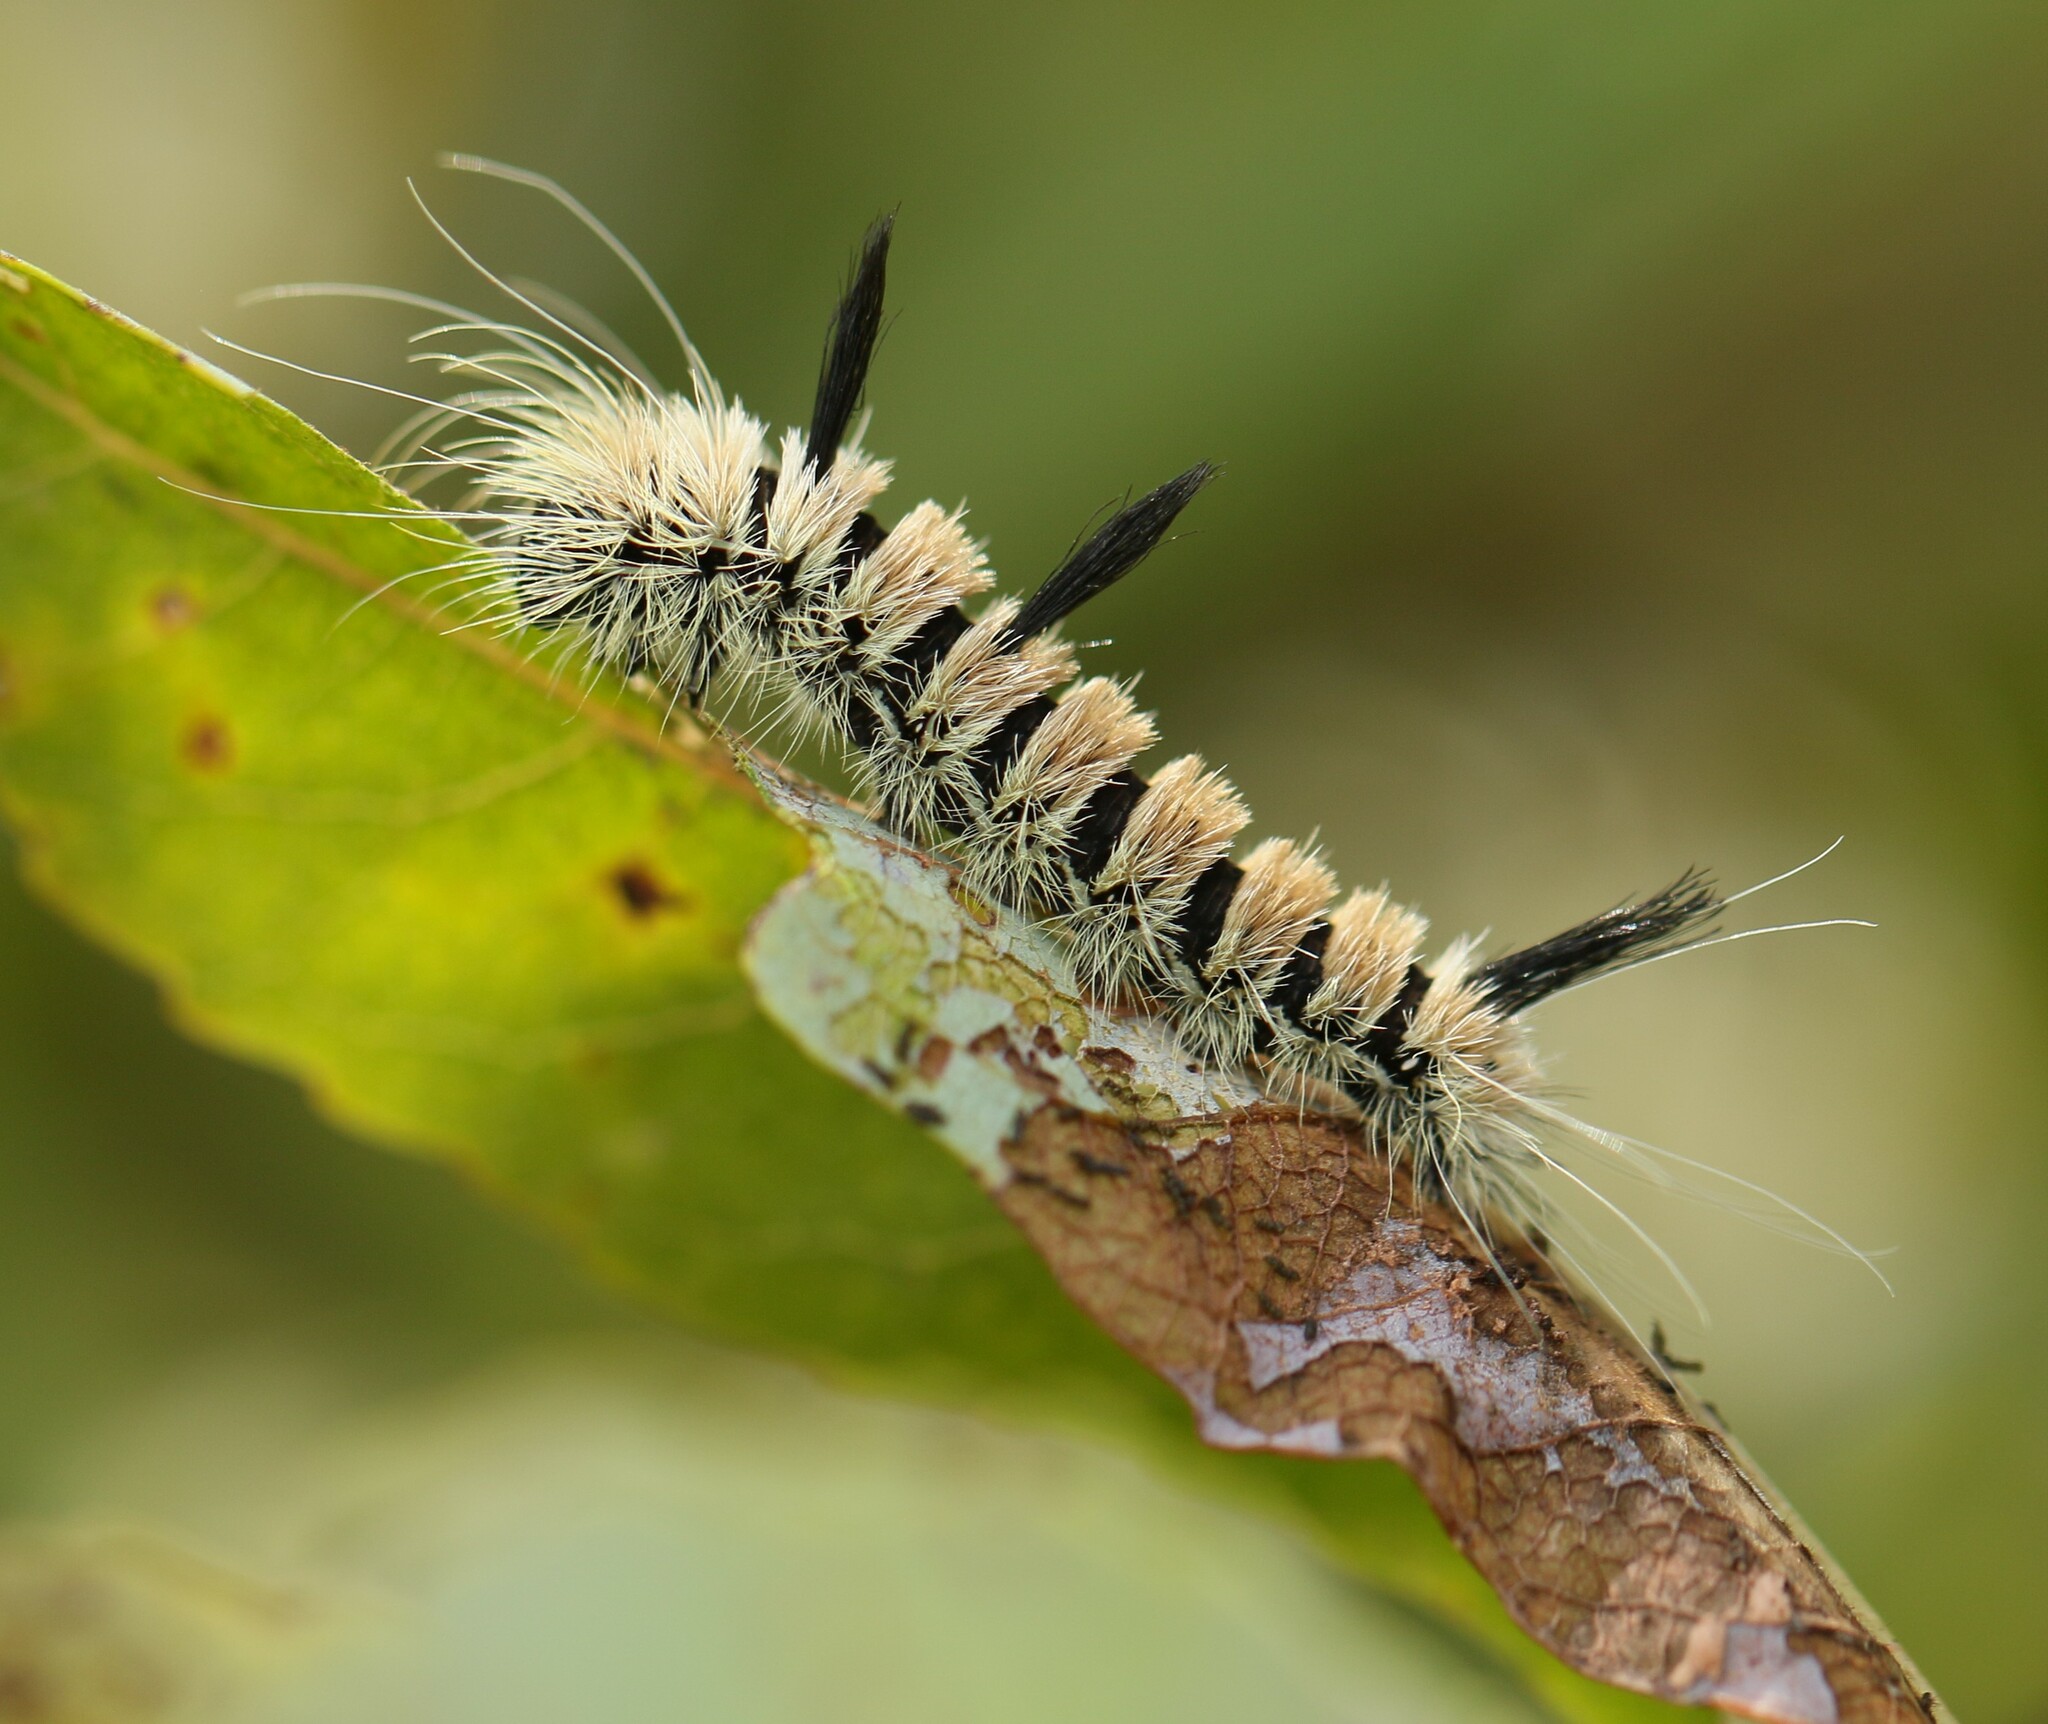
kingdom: Animalia
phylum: Arthropoda
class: Insecta
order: Lepidoptera
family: Noctuidae
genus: Acronicta
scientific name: Acronicta insita
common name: Large gray dagger
